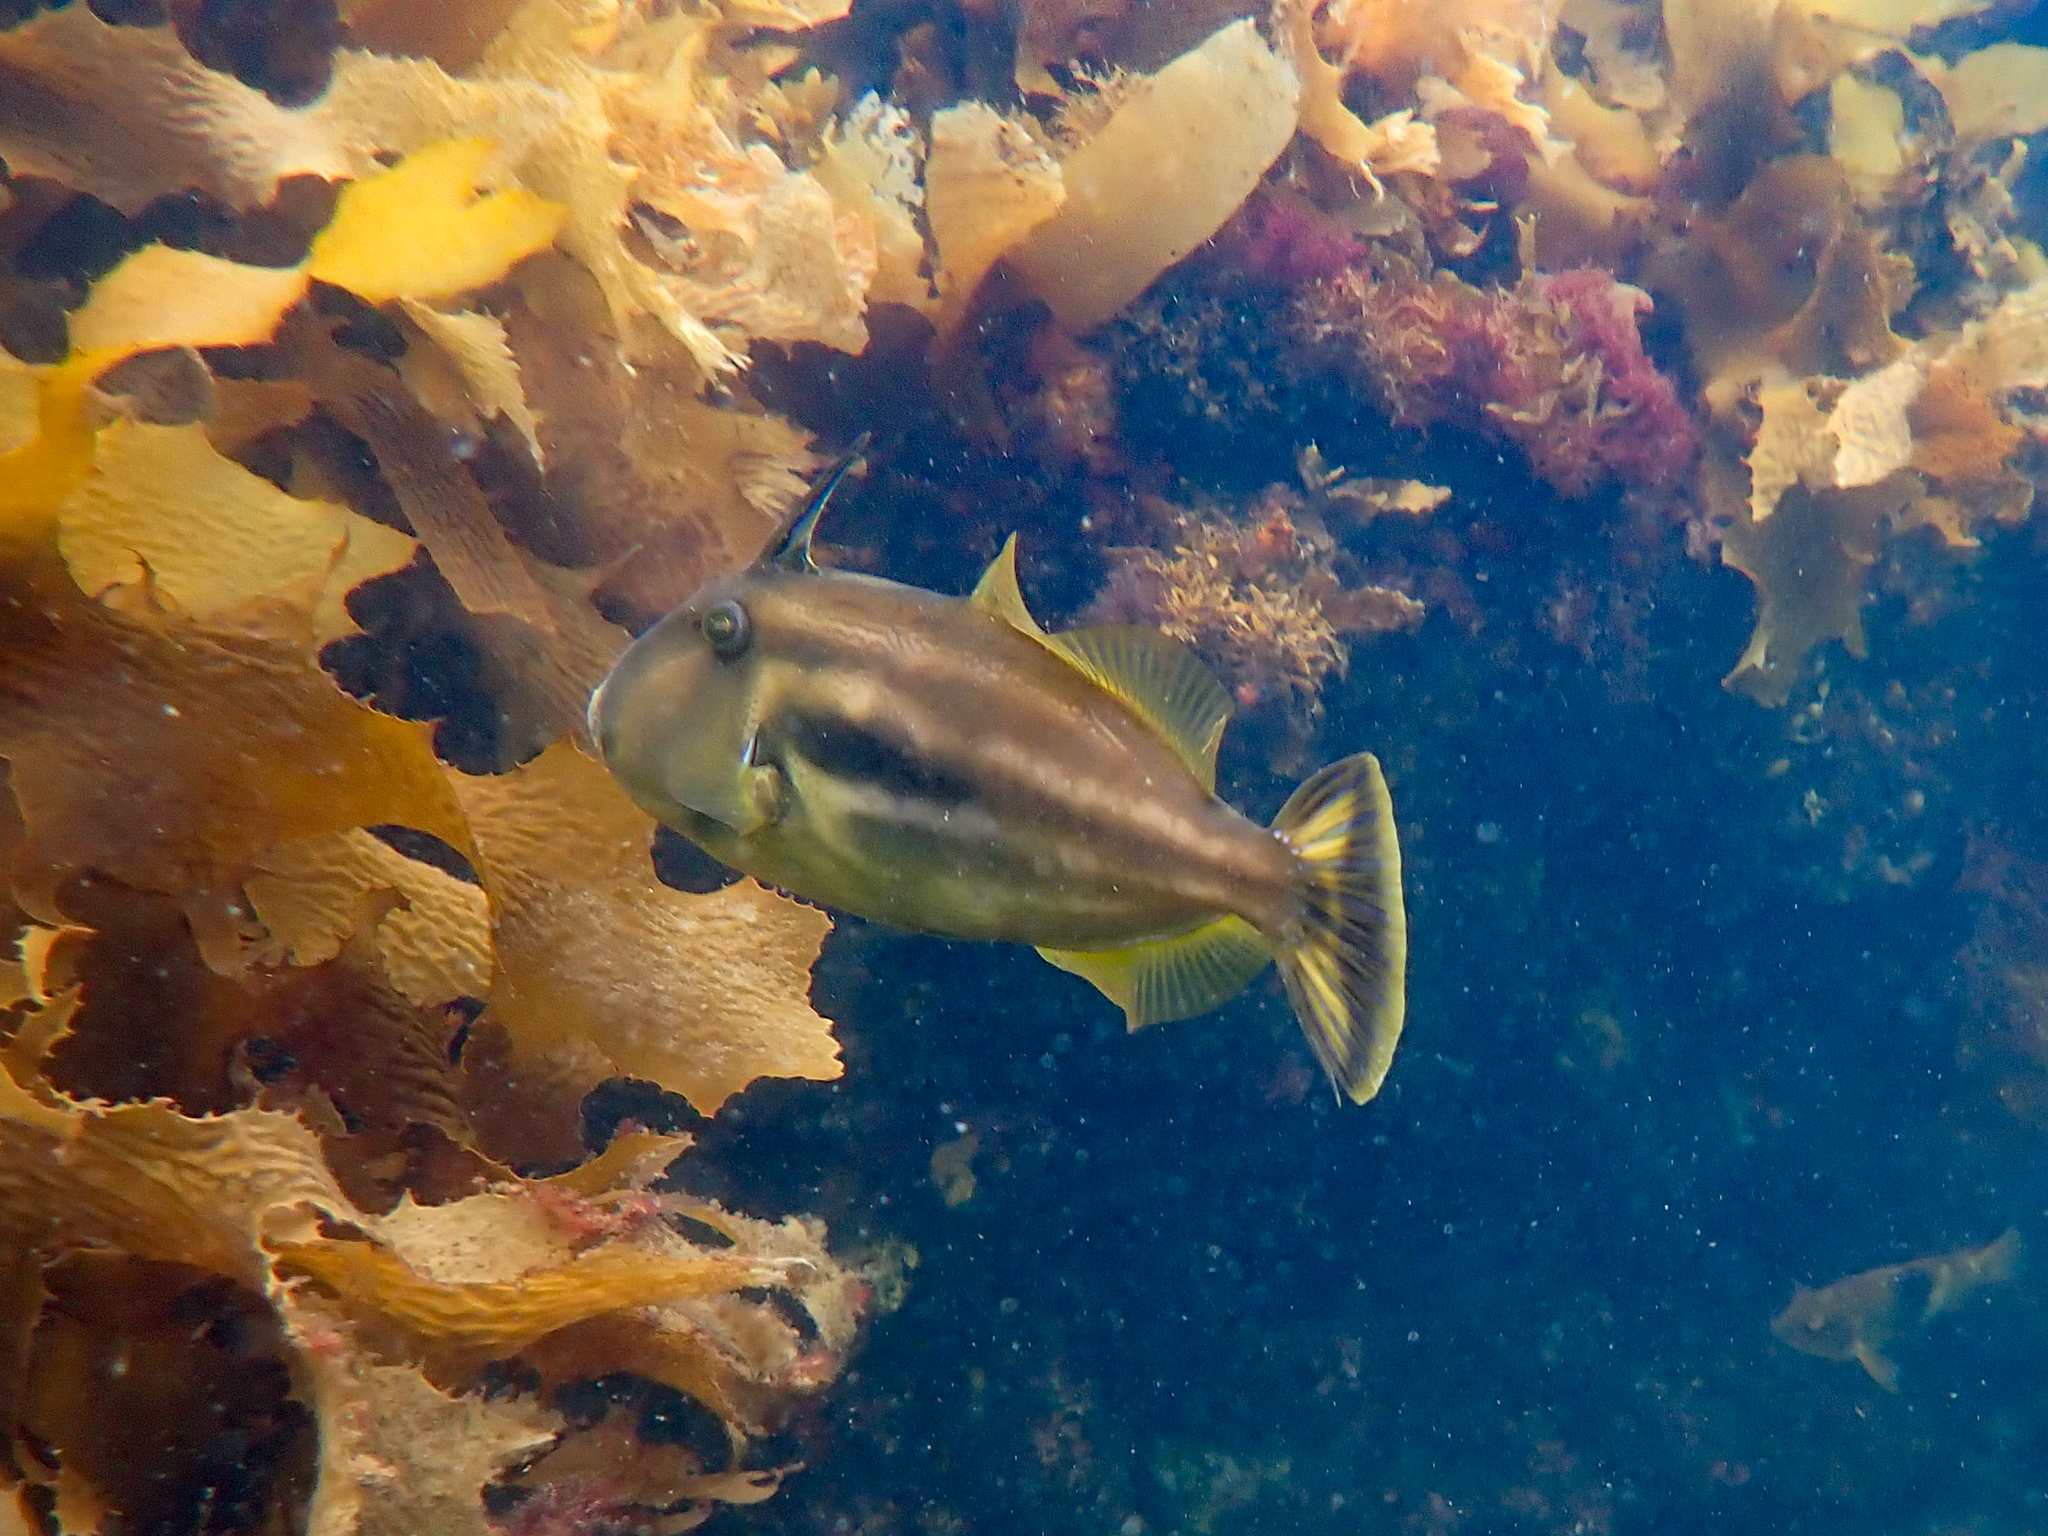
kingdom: Animalia
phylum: Chordata
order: Tetraodontiformes
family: Monacanthidae
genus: Meuschenia
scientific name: Meuschenia freycineti
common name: Freycinet's leatherjacket
